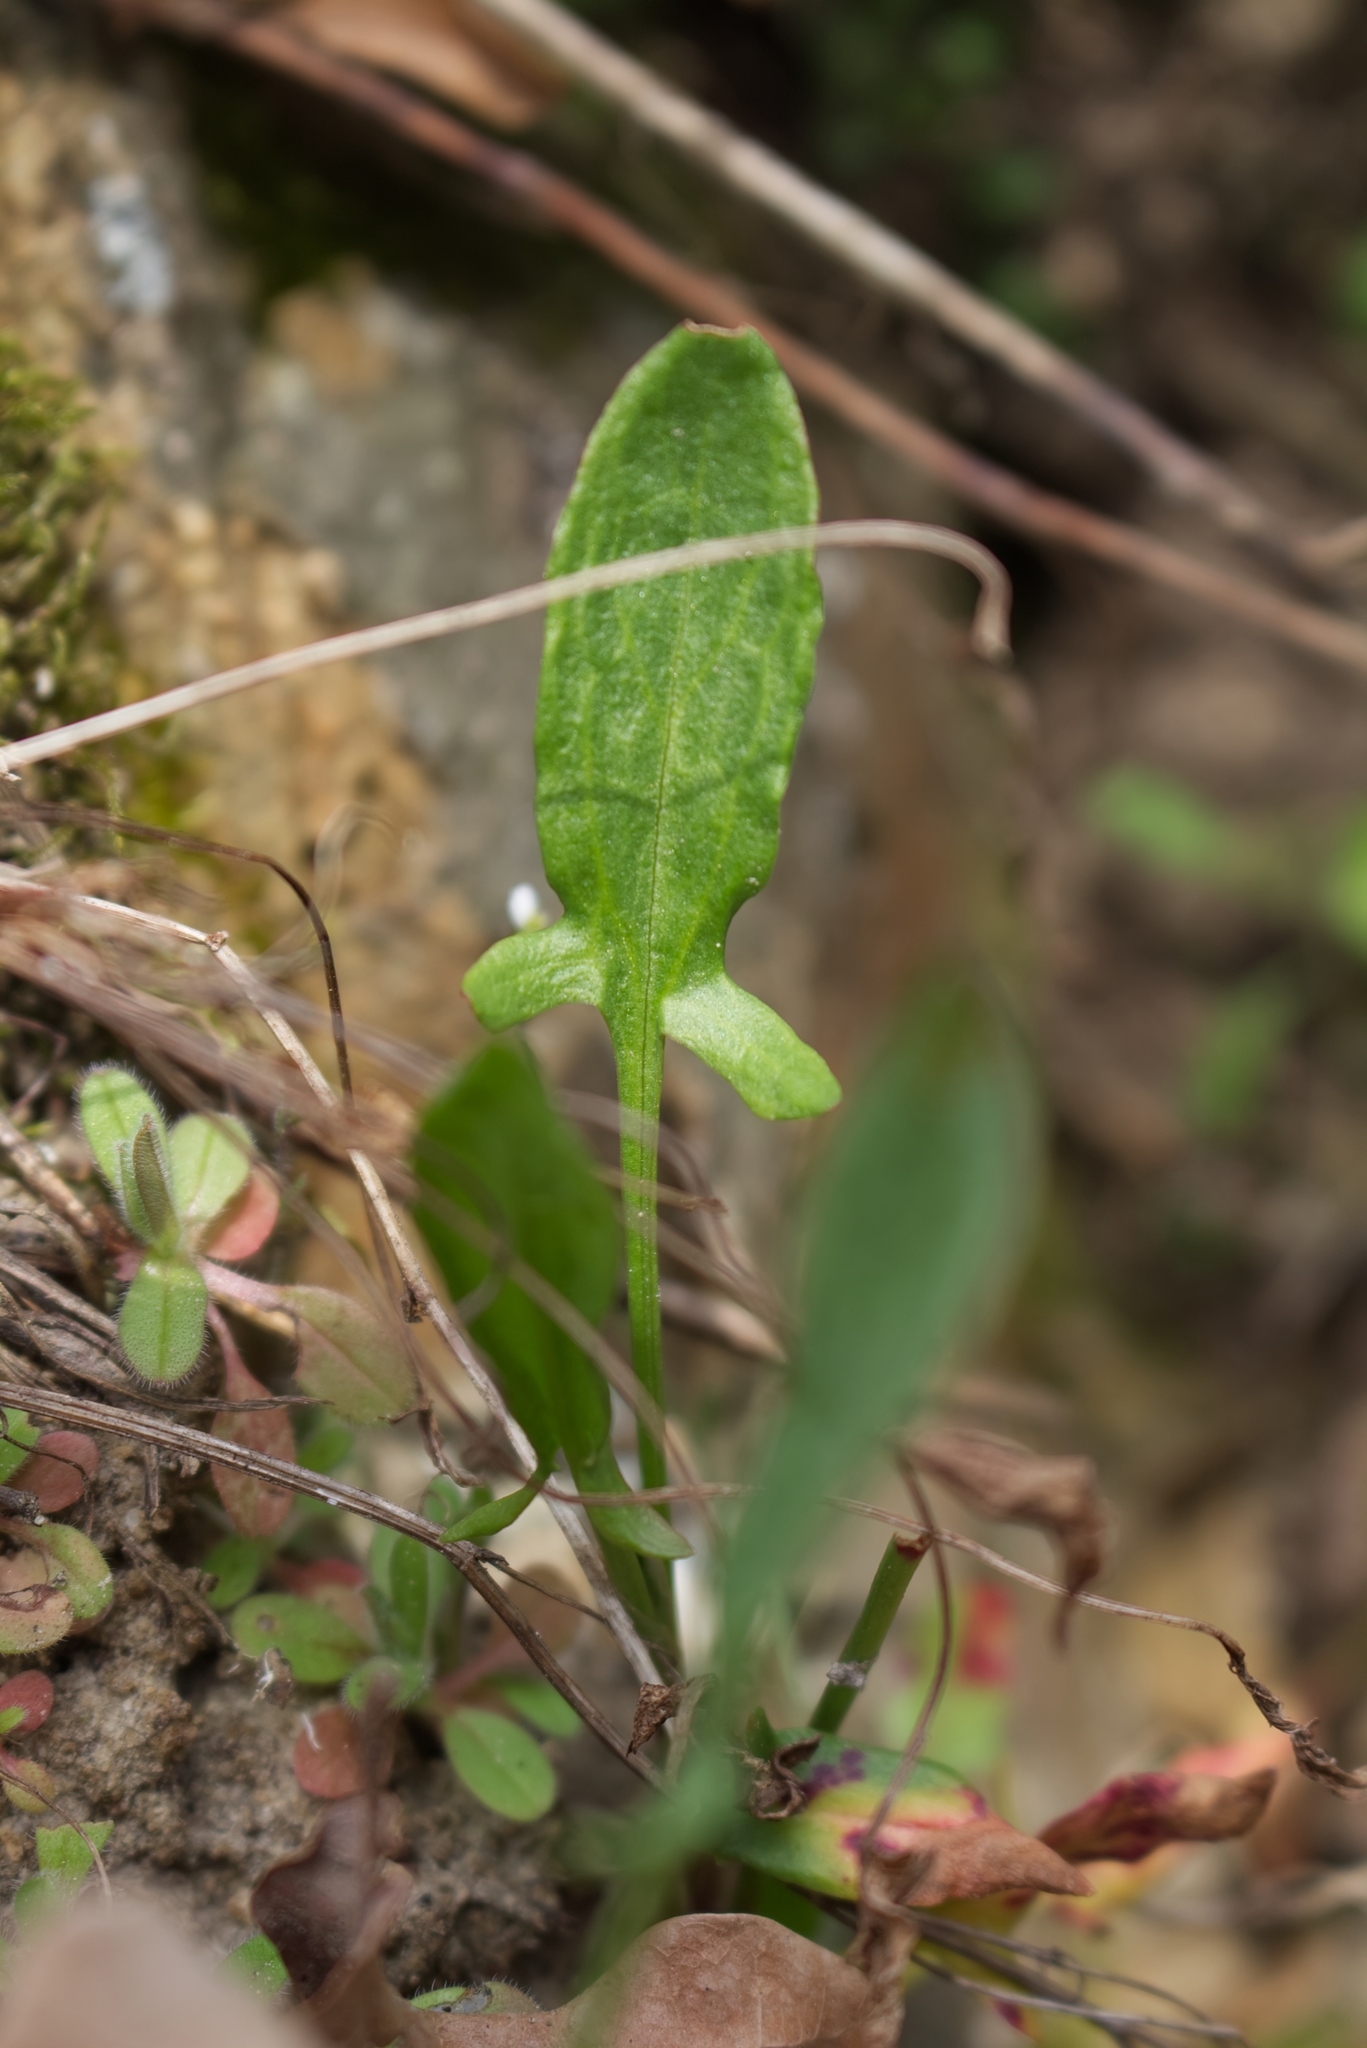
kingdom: Plantae
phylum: Tracheophyta
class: Magnoliopsida
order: Caryophyllales
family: Polygonaceae
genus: Rumex
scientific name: Rumex acetosella
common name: Common sheep sorrel
